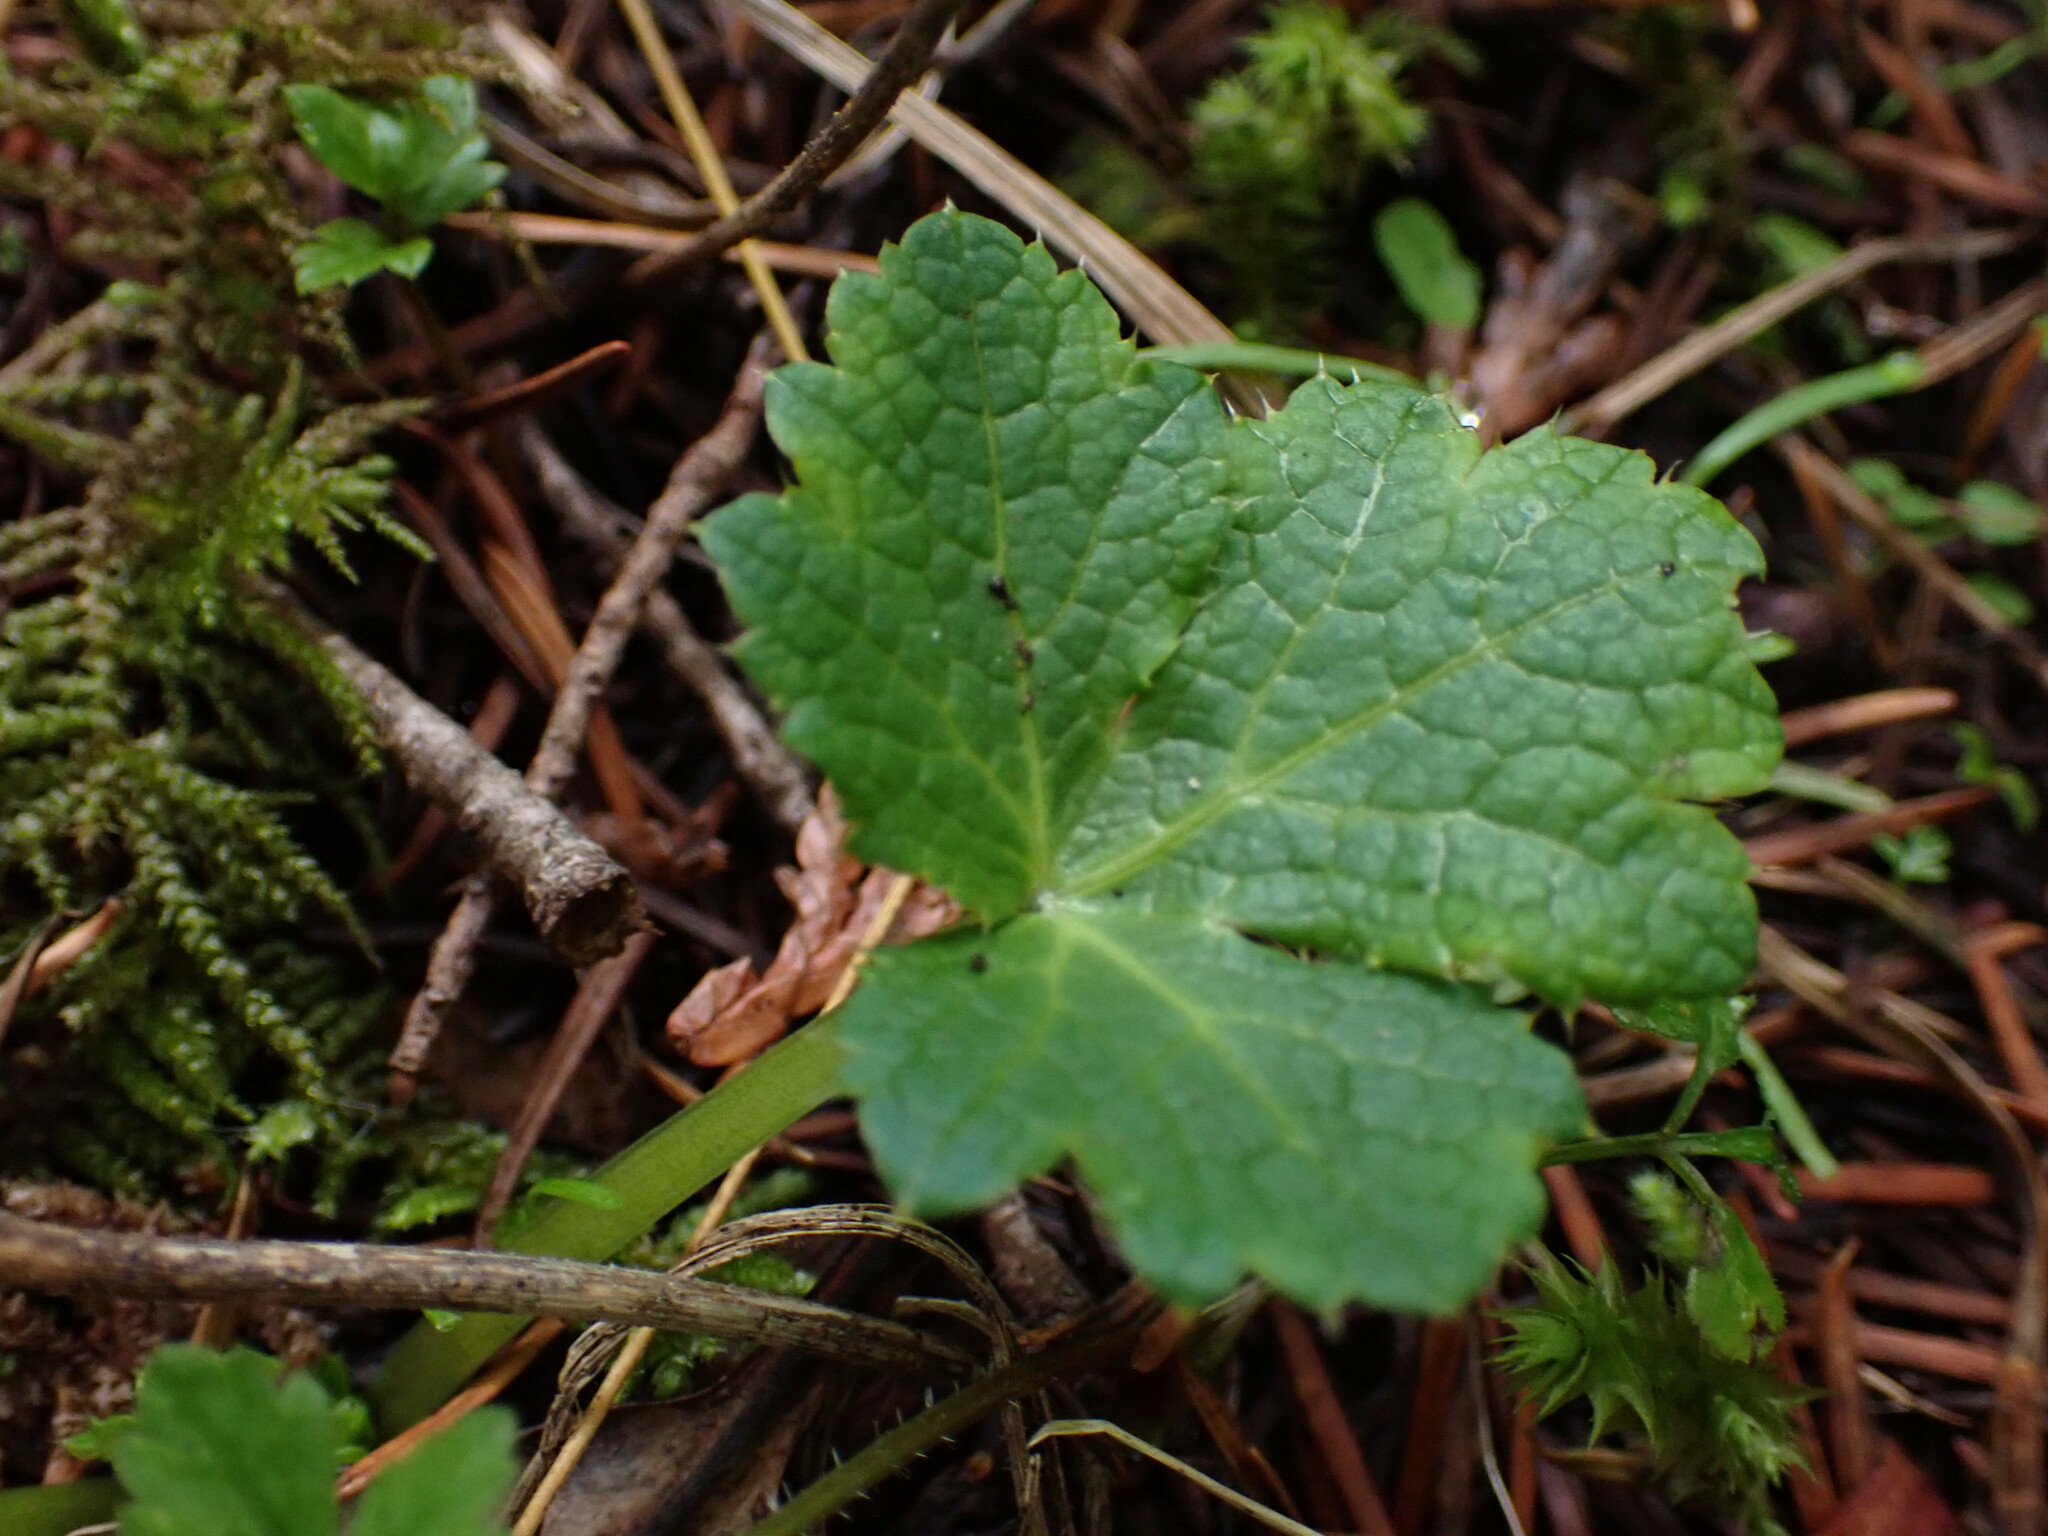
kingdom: Plantae
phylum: Tracheophyta
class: Magnoliopsida
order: Apiales
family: Apiaceae
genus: Sanicula
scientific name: Sanicula crassicaulis
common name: Western snakeroot
